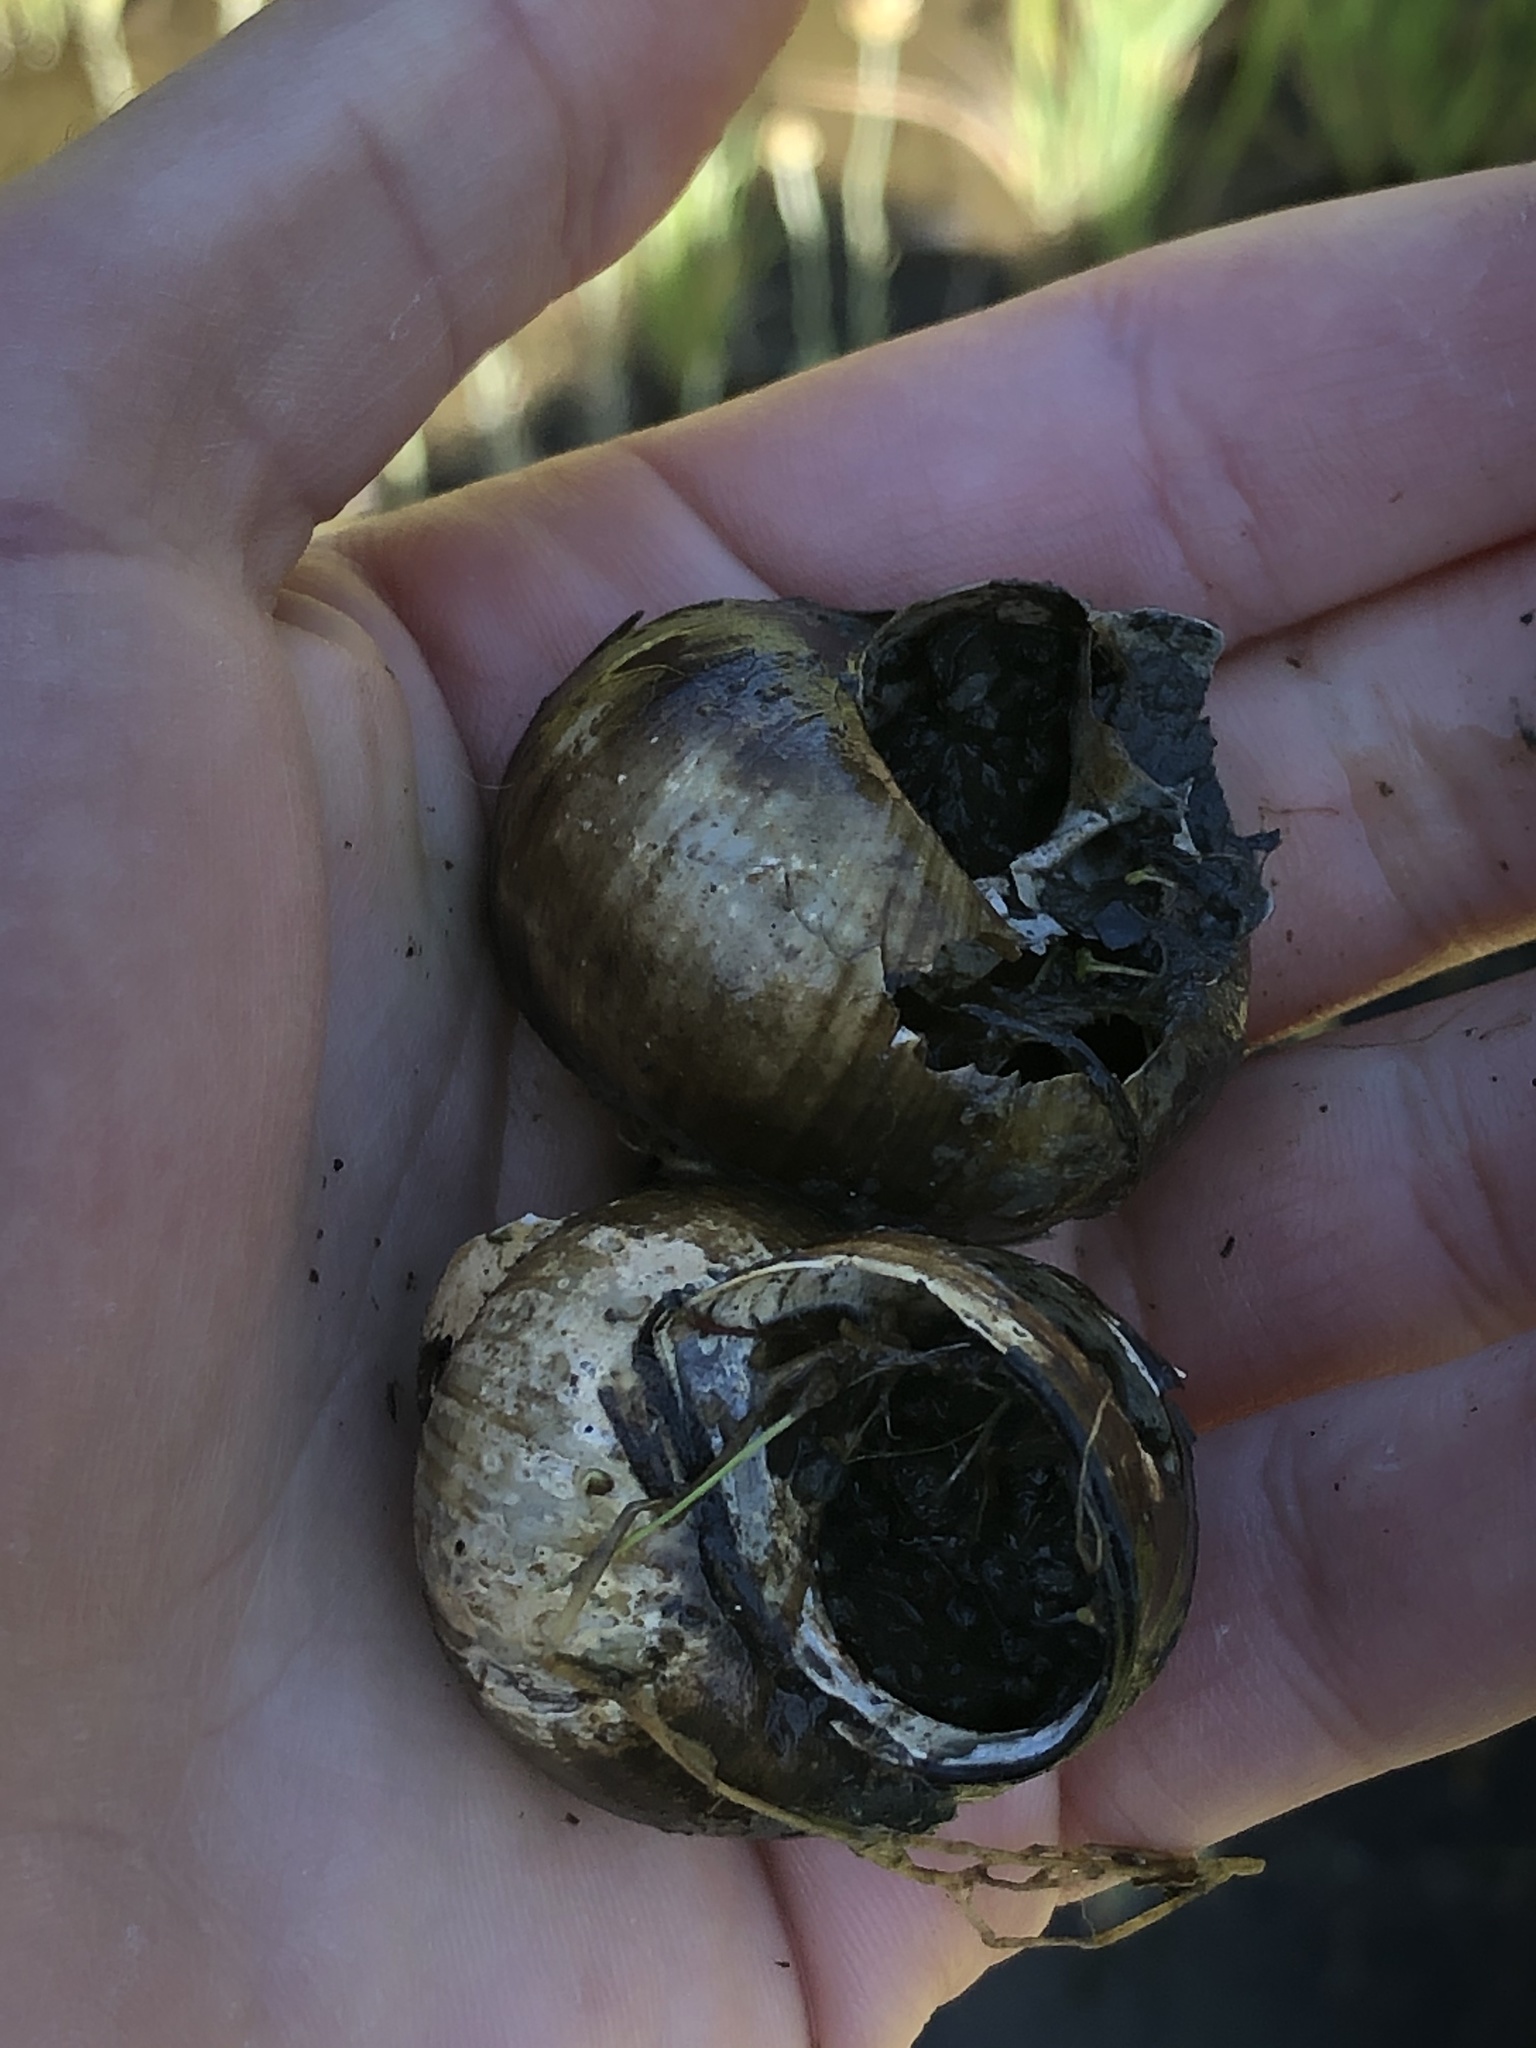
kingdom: Animalia
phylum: Mollusca
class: Gastropoda
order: Architaenioglossa
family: Viviparidae
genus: Cipangopaludina
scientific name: Cipangopaludina chinensis
